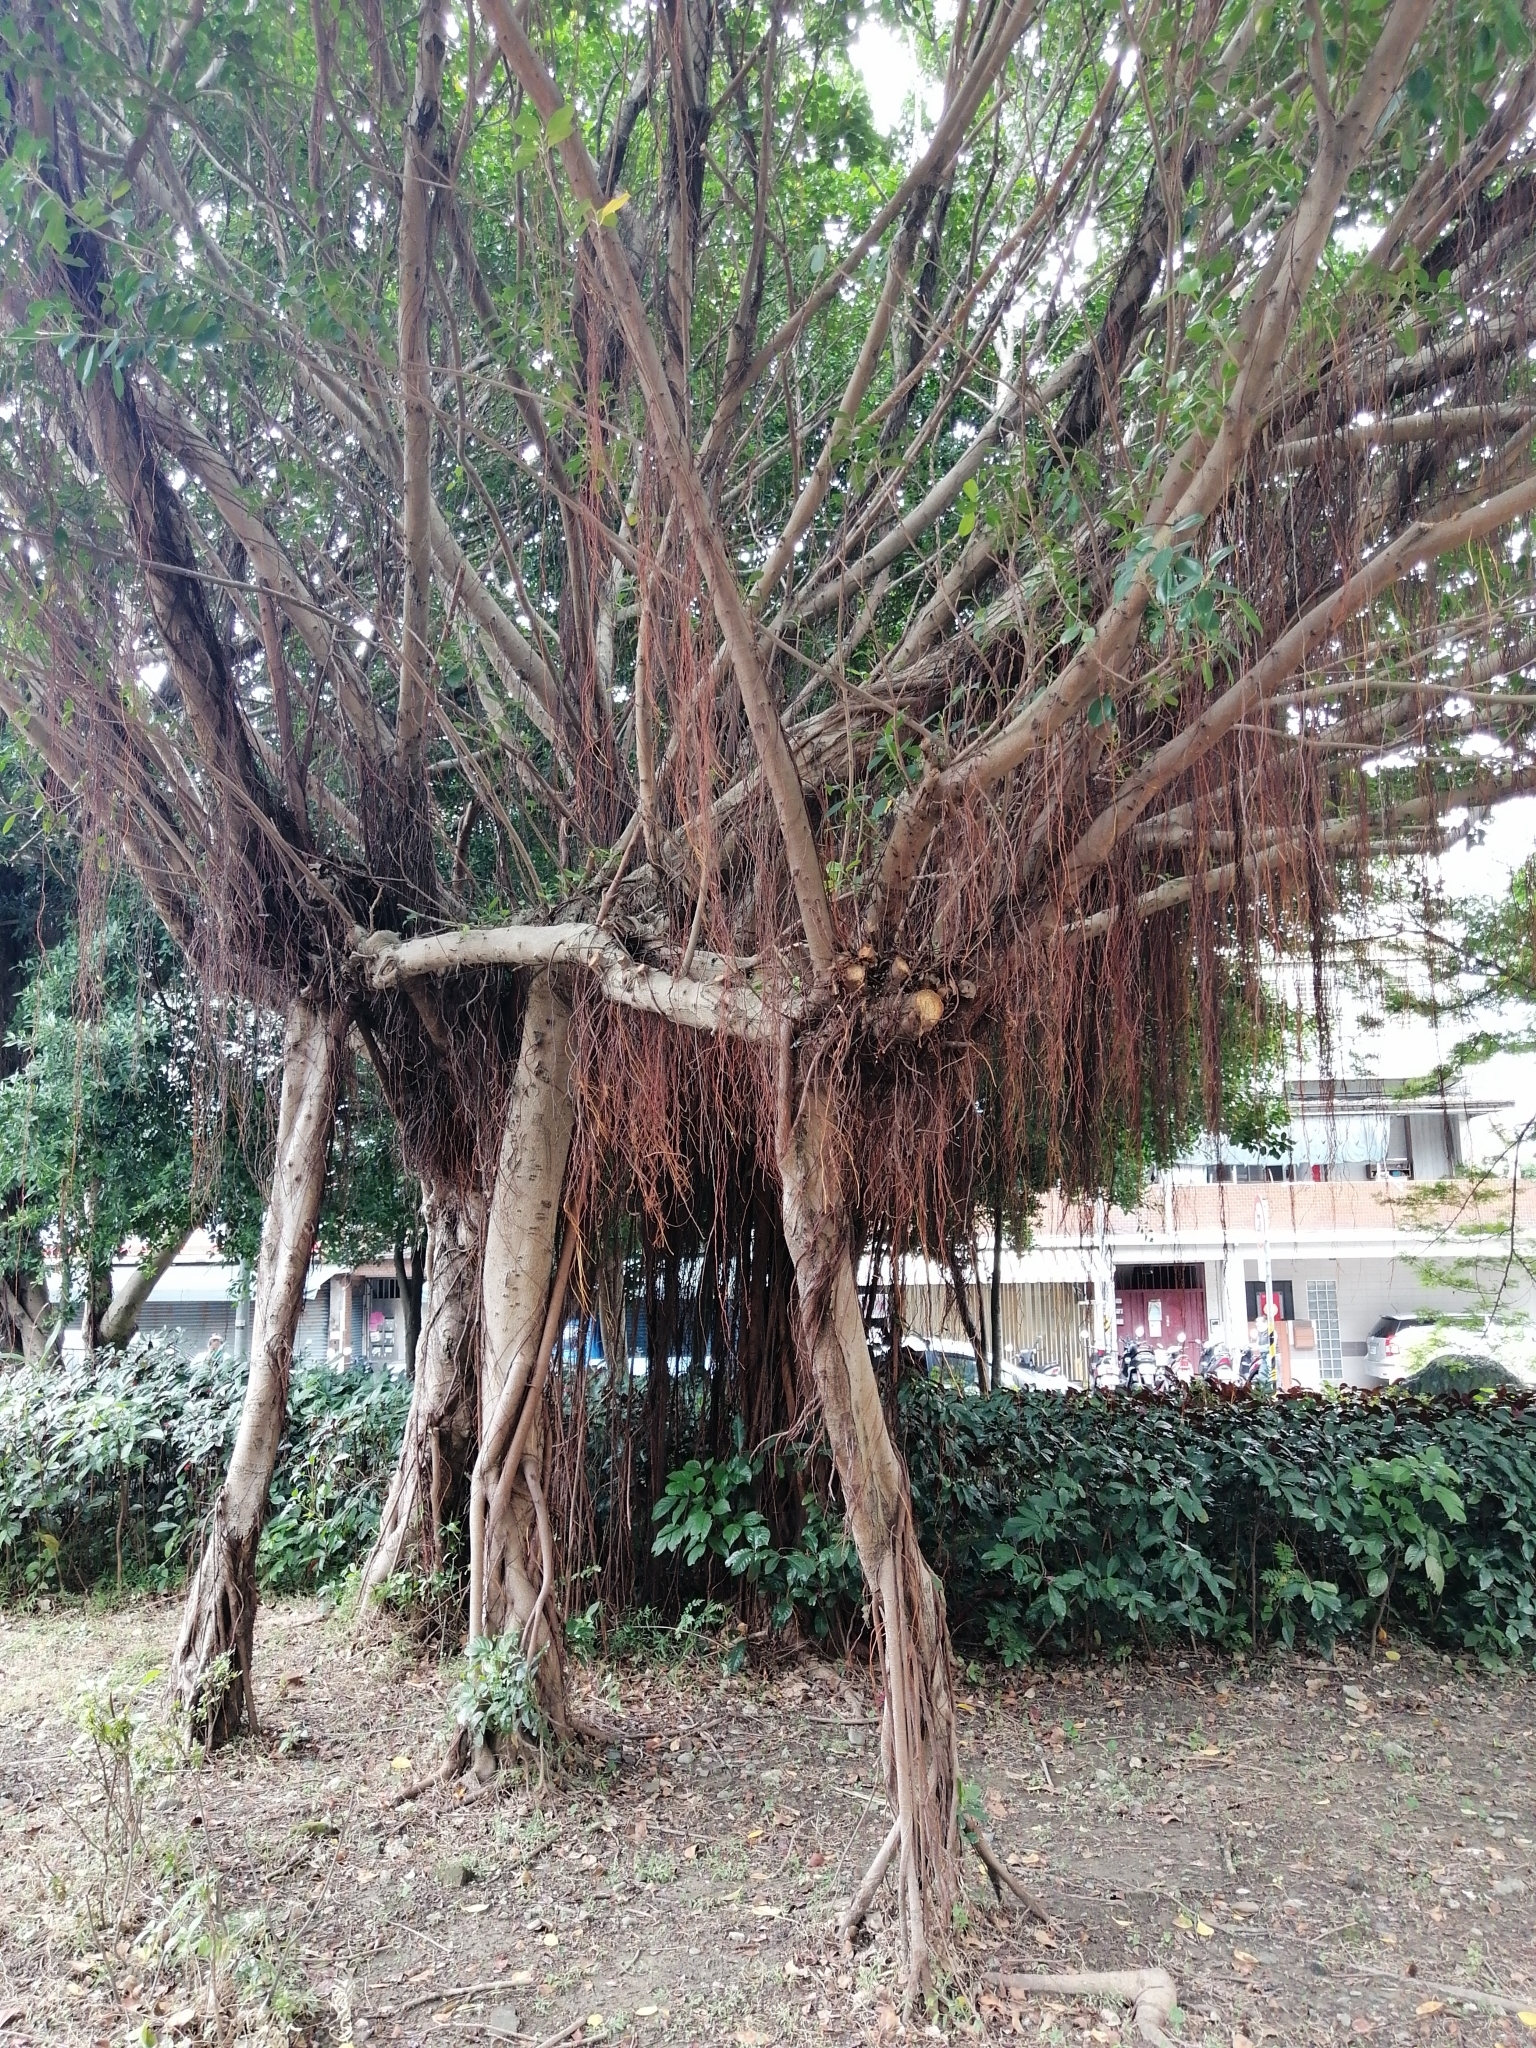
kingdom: Plantae
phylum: Tracheophyta
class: Magnoliopsida
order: Rosales
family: Moraceae
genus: Ficus
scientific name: Ficus microcarpa
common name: Chinese banyan
